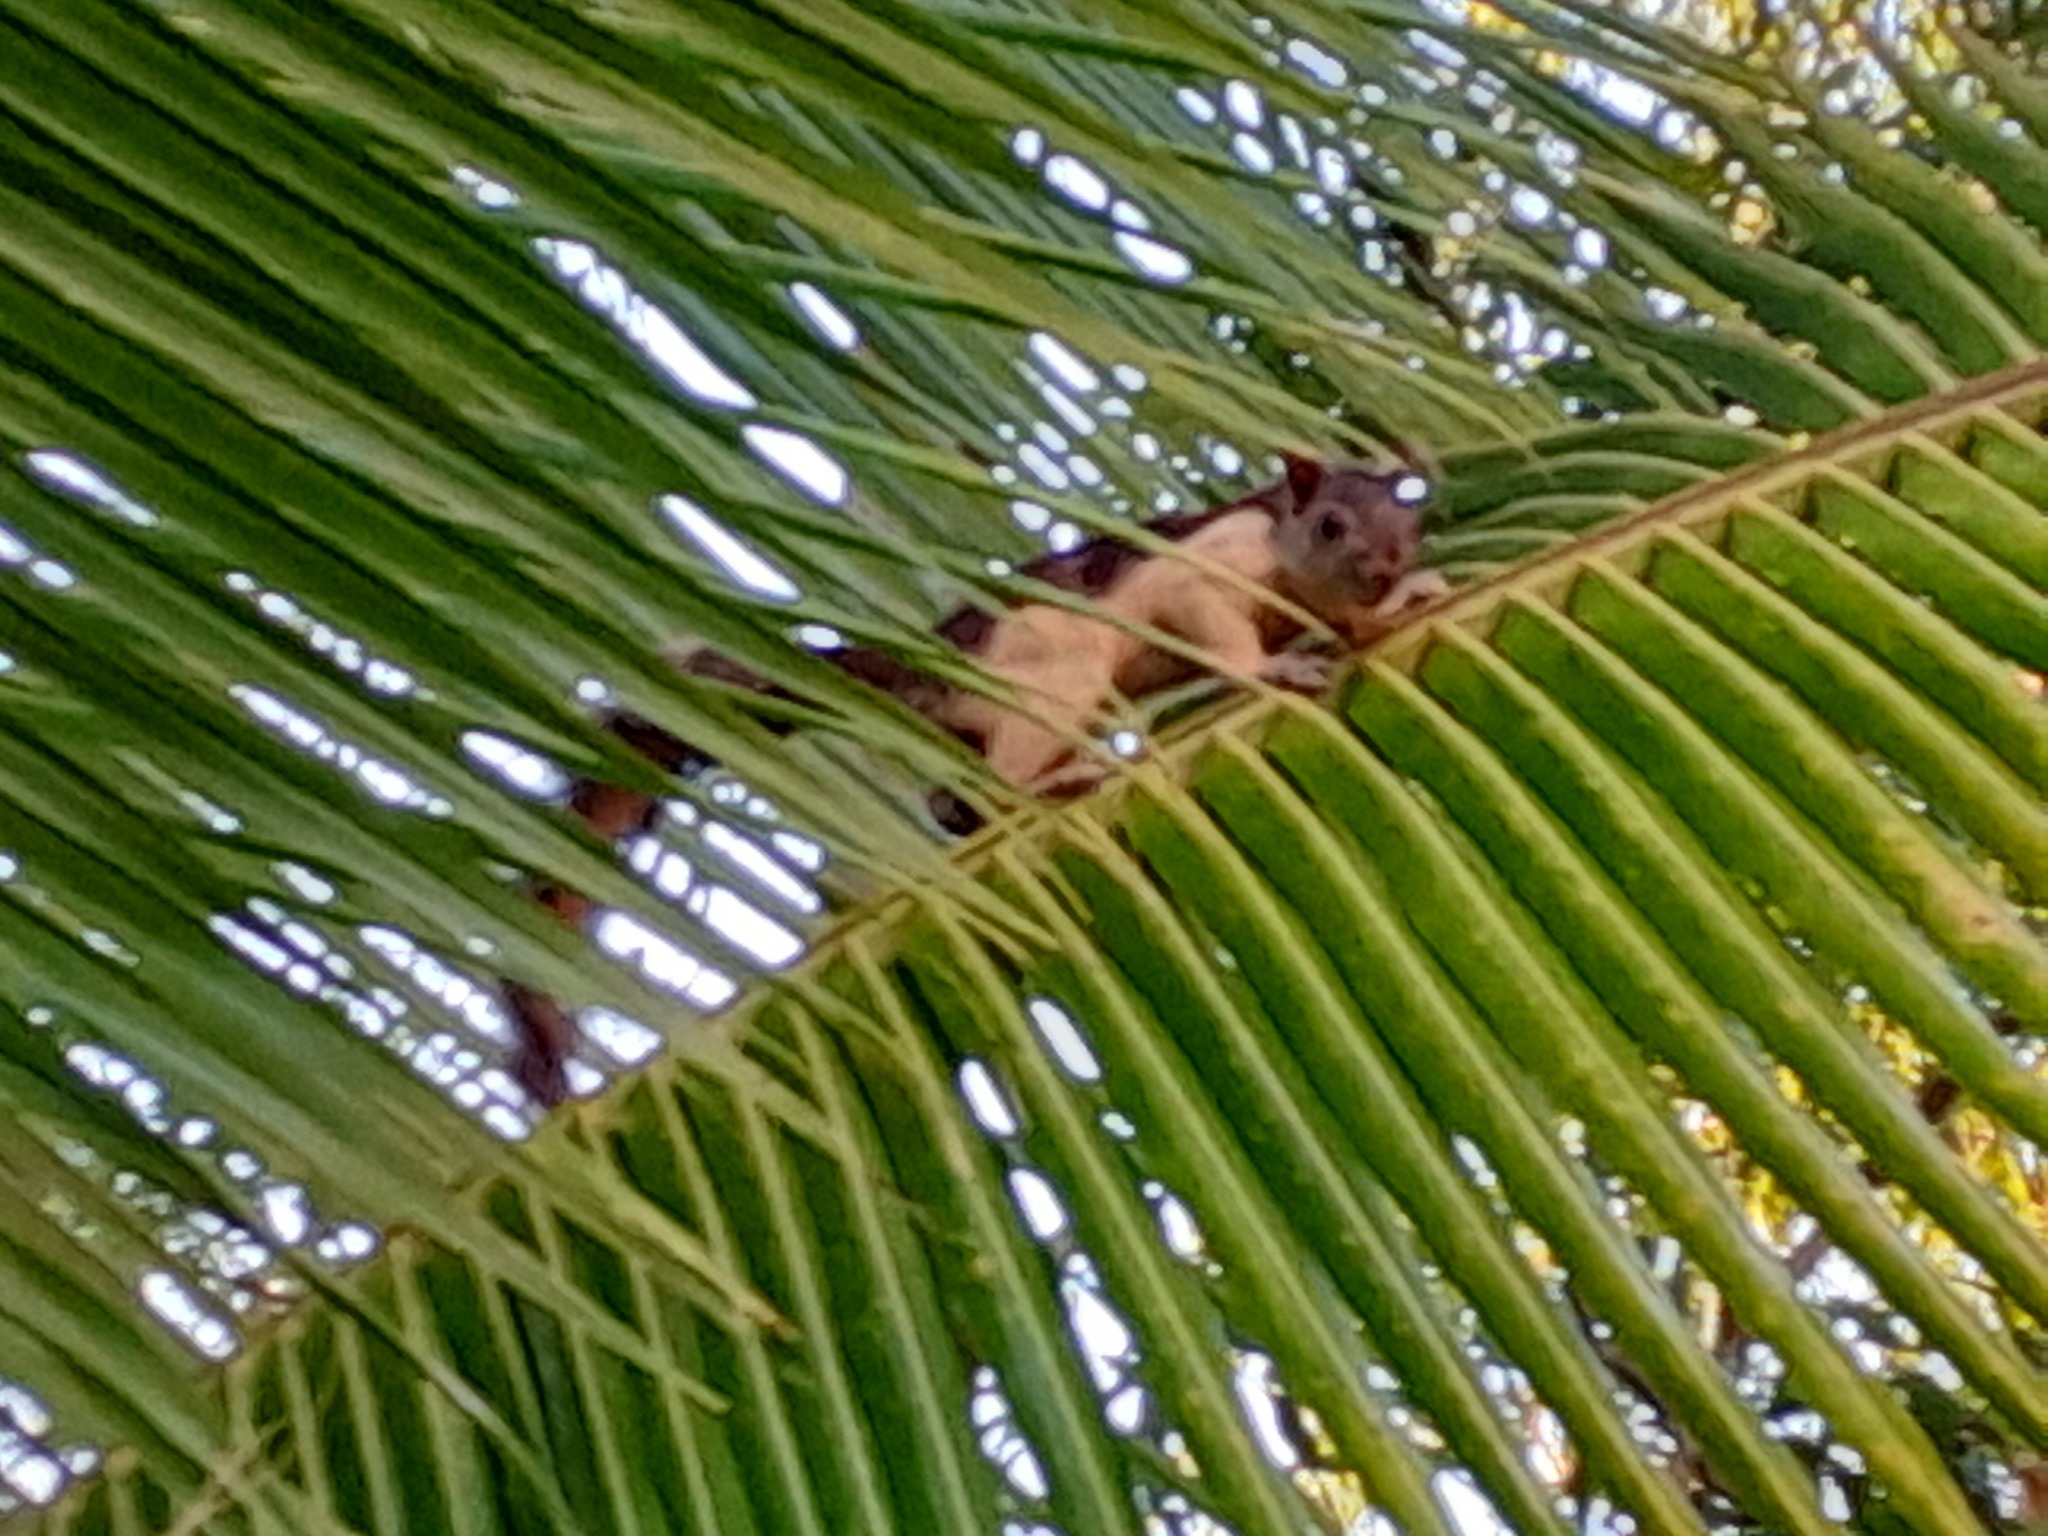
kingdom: Animalia
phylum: Chordata
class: Mammalia
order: Rodentia
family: Sciuridae
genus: Sciurus
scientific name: Sciurus variegatoides
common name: Variegated squirrel
